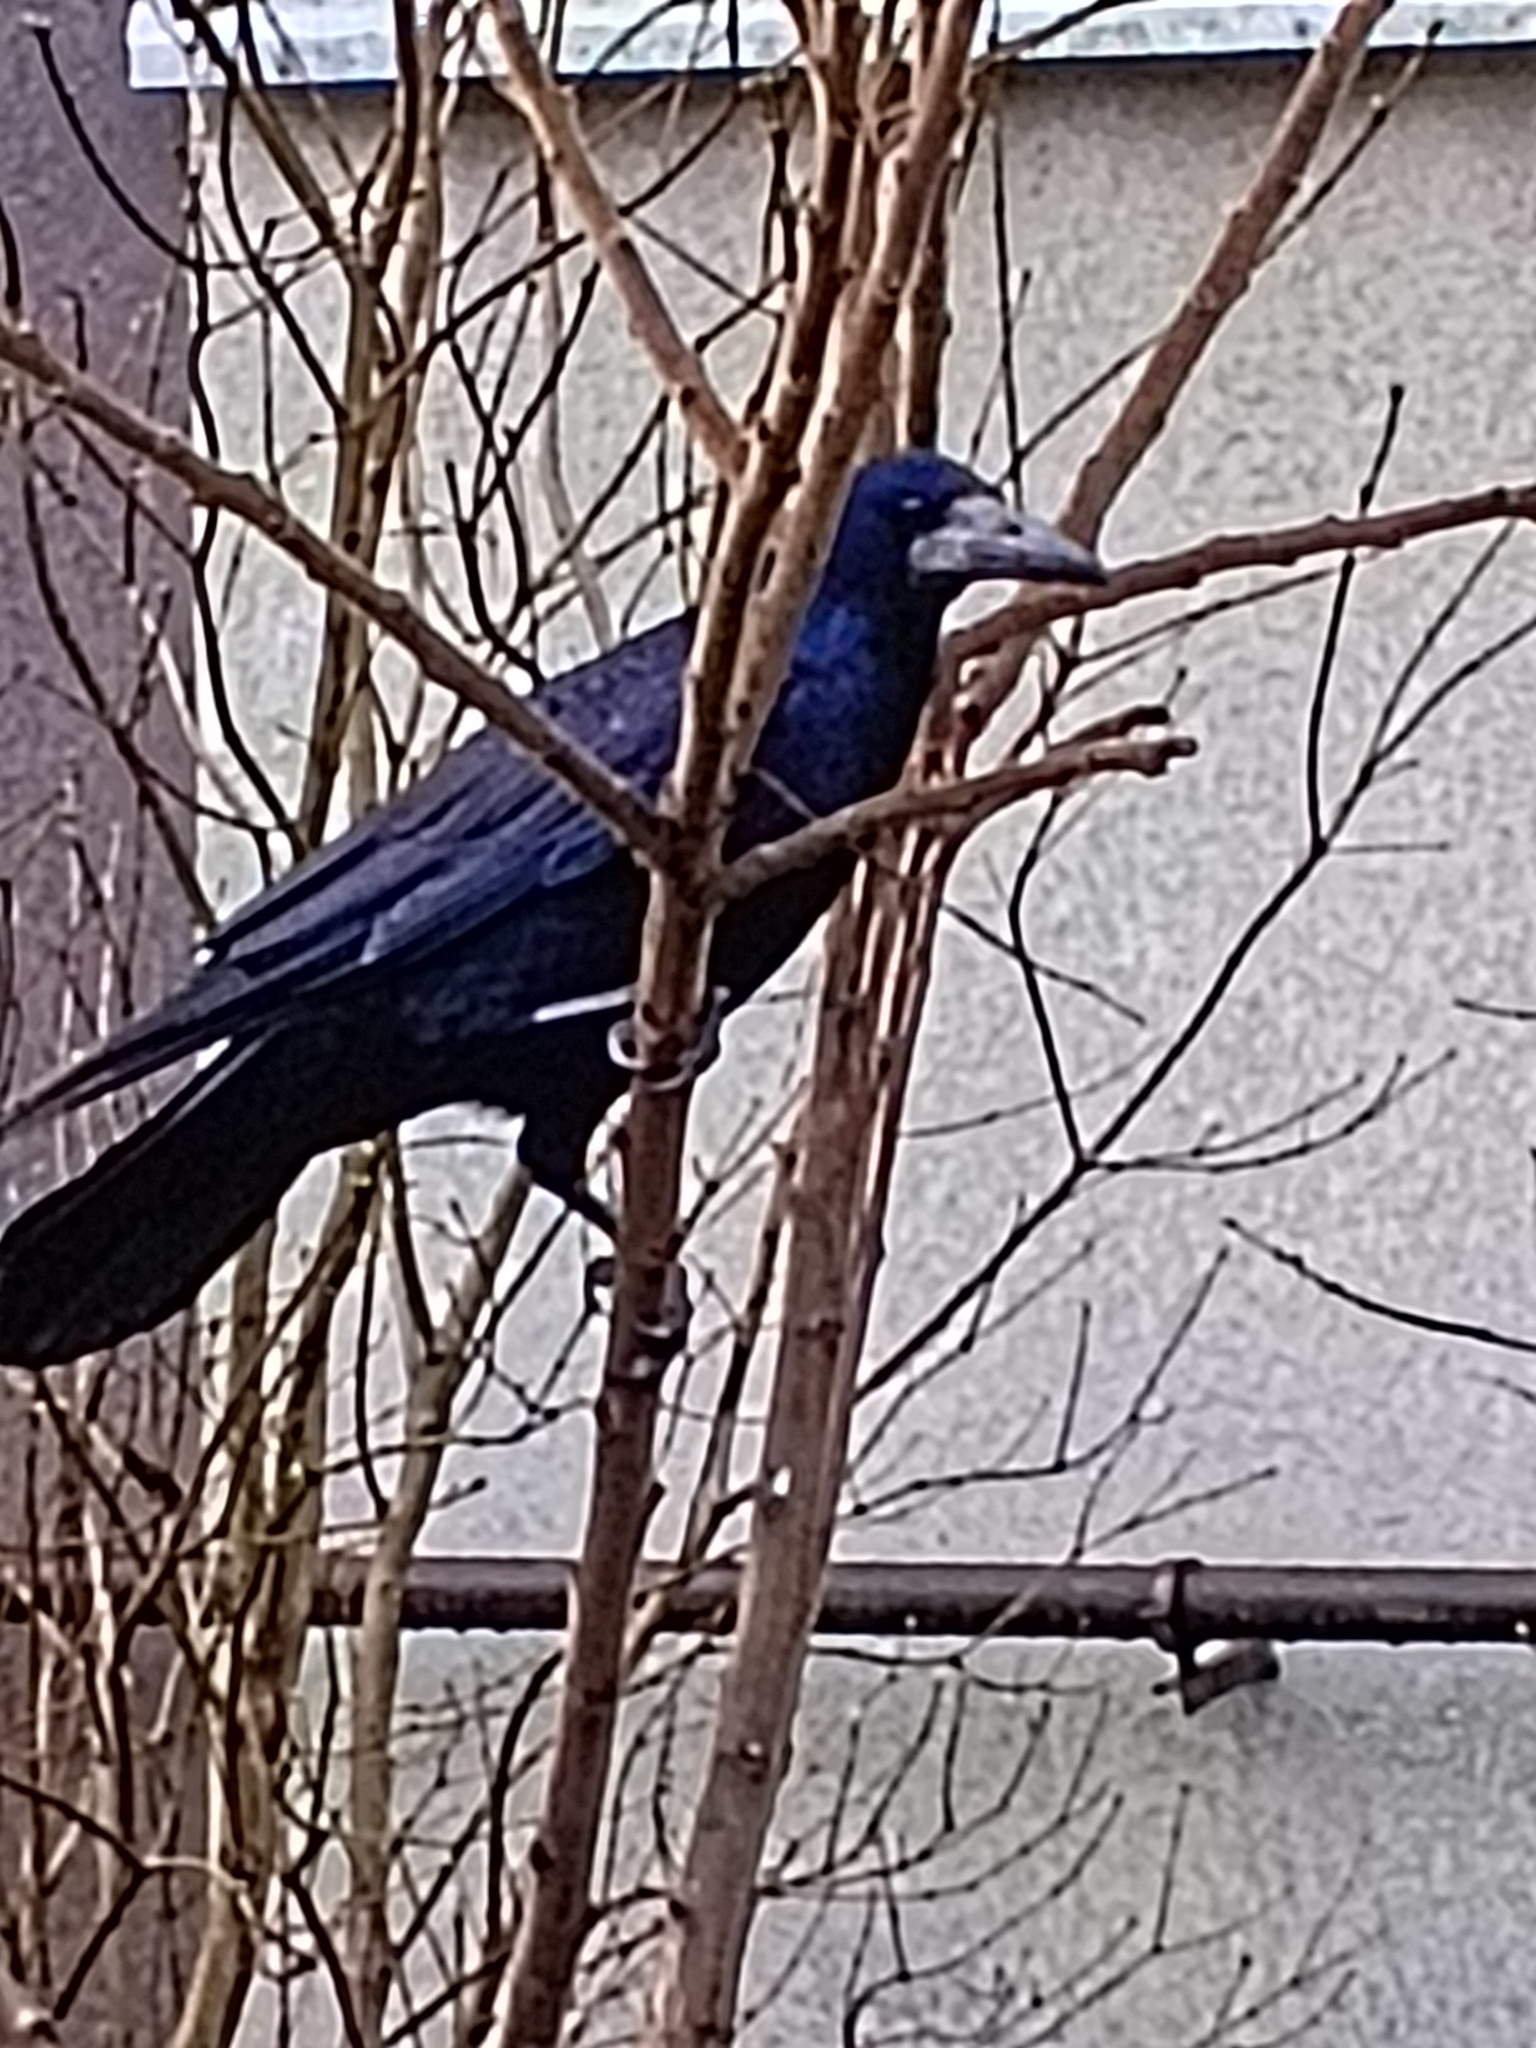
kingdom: Animalia
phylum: Chordata
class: Aves
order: Passeriformes
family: Corvidae
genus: Corvus
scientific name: Corvus frugilegus
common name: Rook
